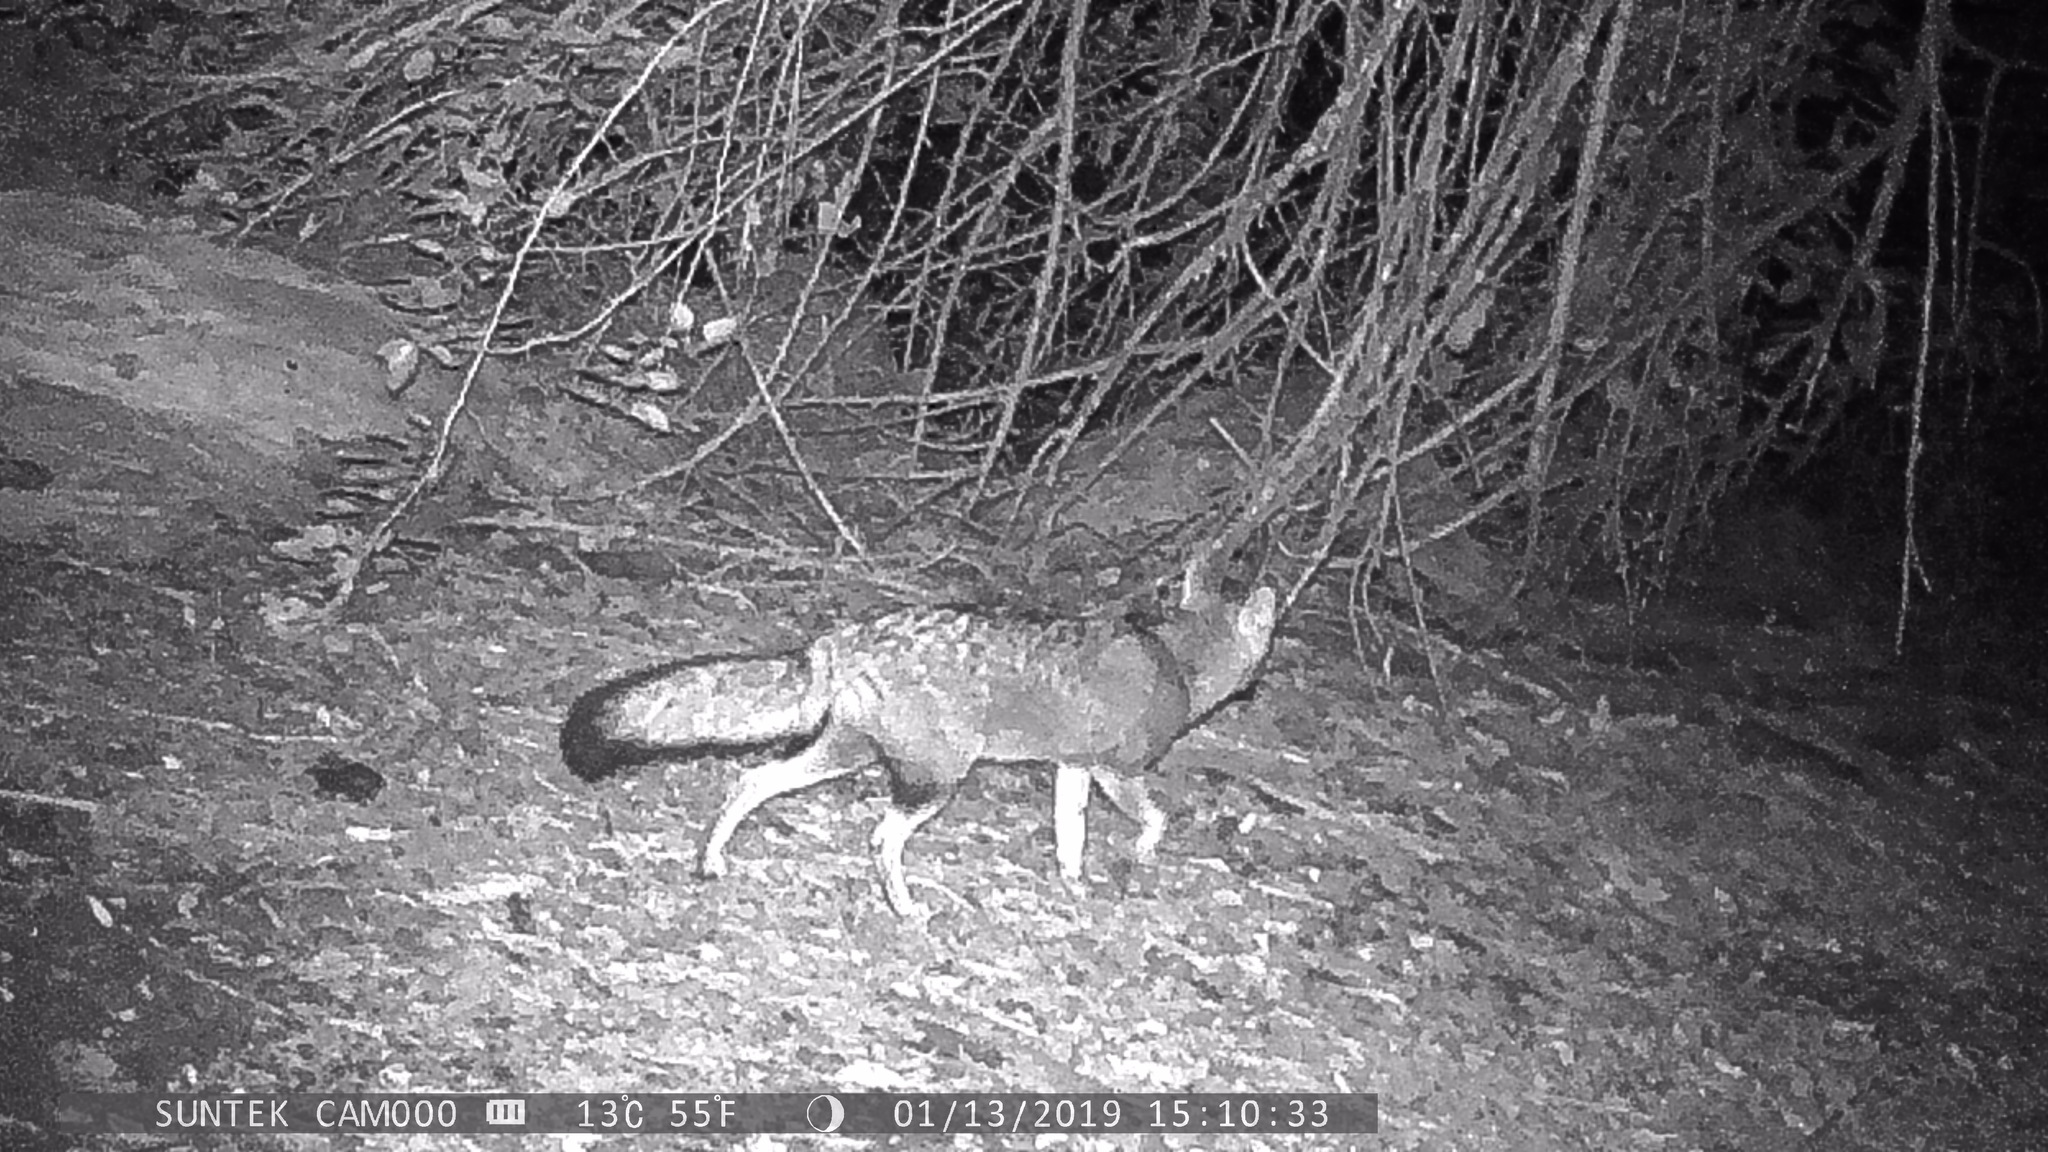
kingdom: Animalia
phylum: Chordata
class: Mammalia
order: Carnivora
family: Canidae
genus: Lycalopex
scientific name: Lycalopex gymnocercus
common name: Pampas fox
